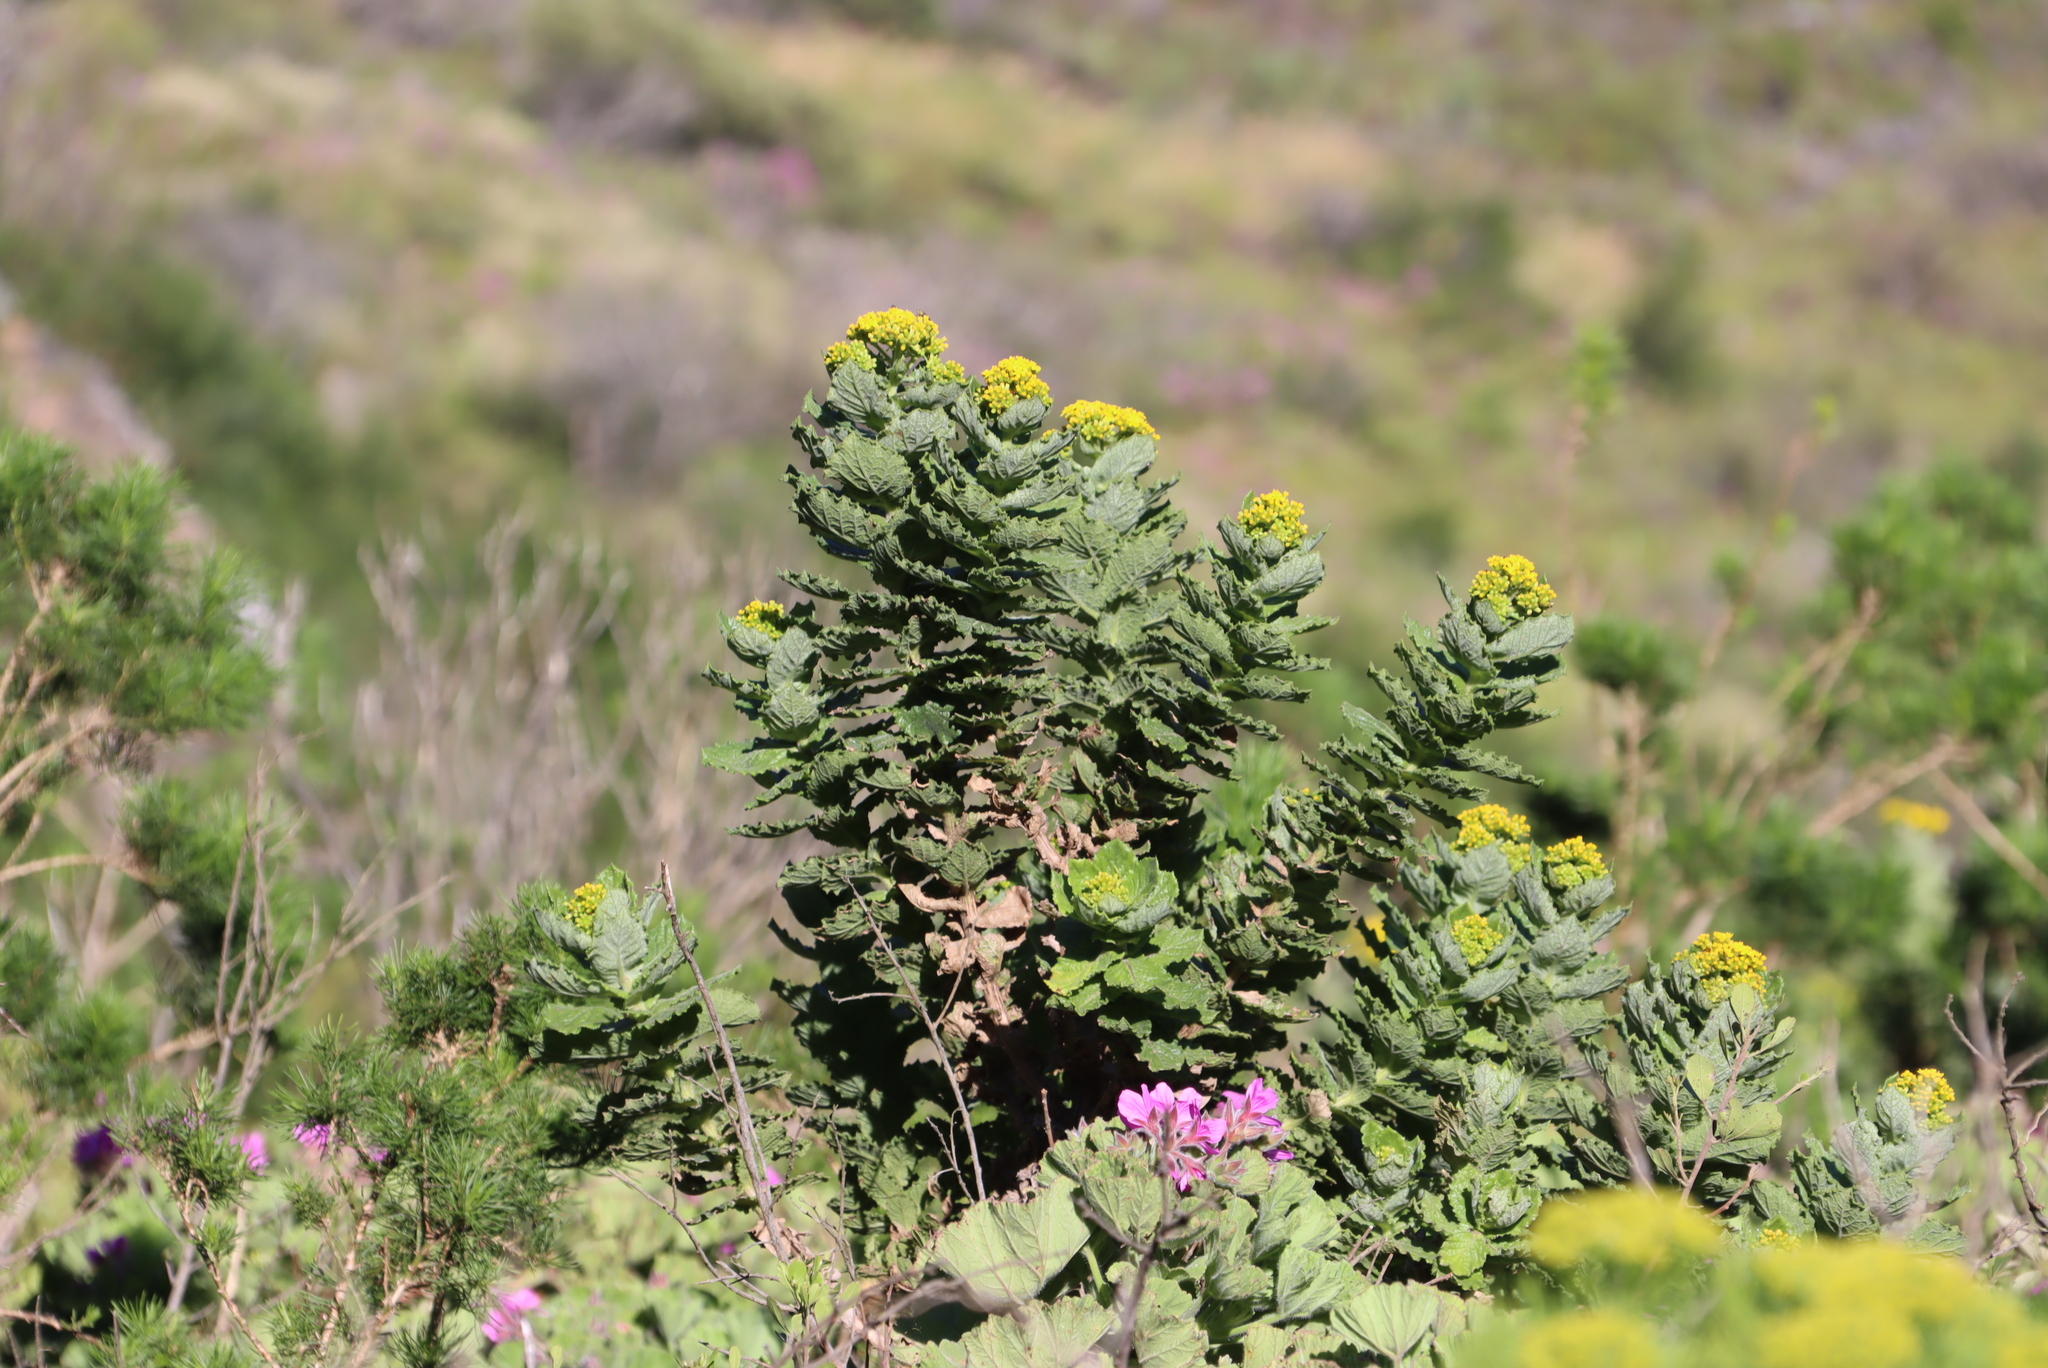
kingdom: Plantae
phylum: Tracheophyta
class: Magnoliopsida
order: Asterales
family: Asteraceae
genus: Senecio
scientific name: Senecio rigidus
